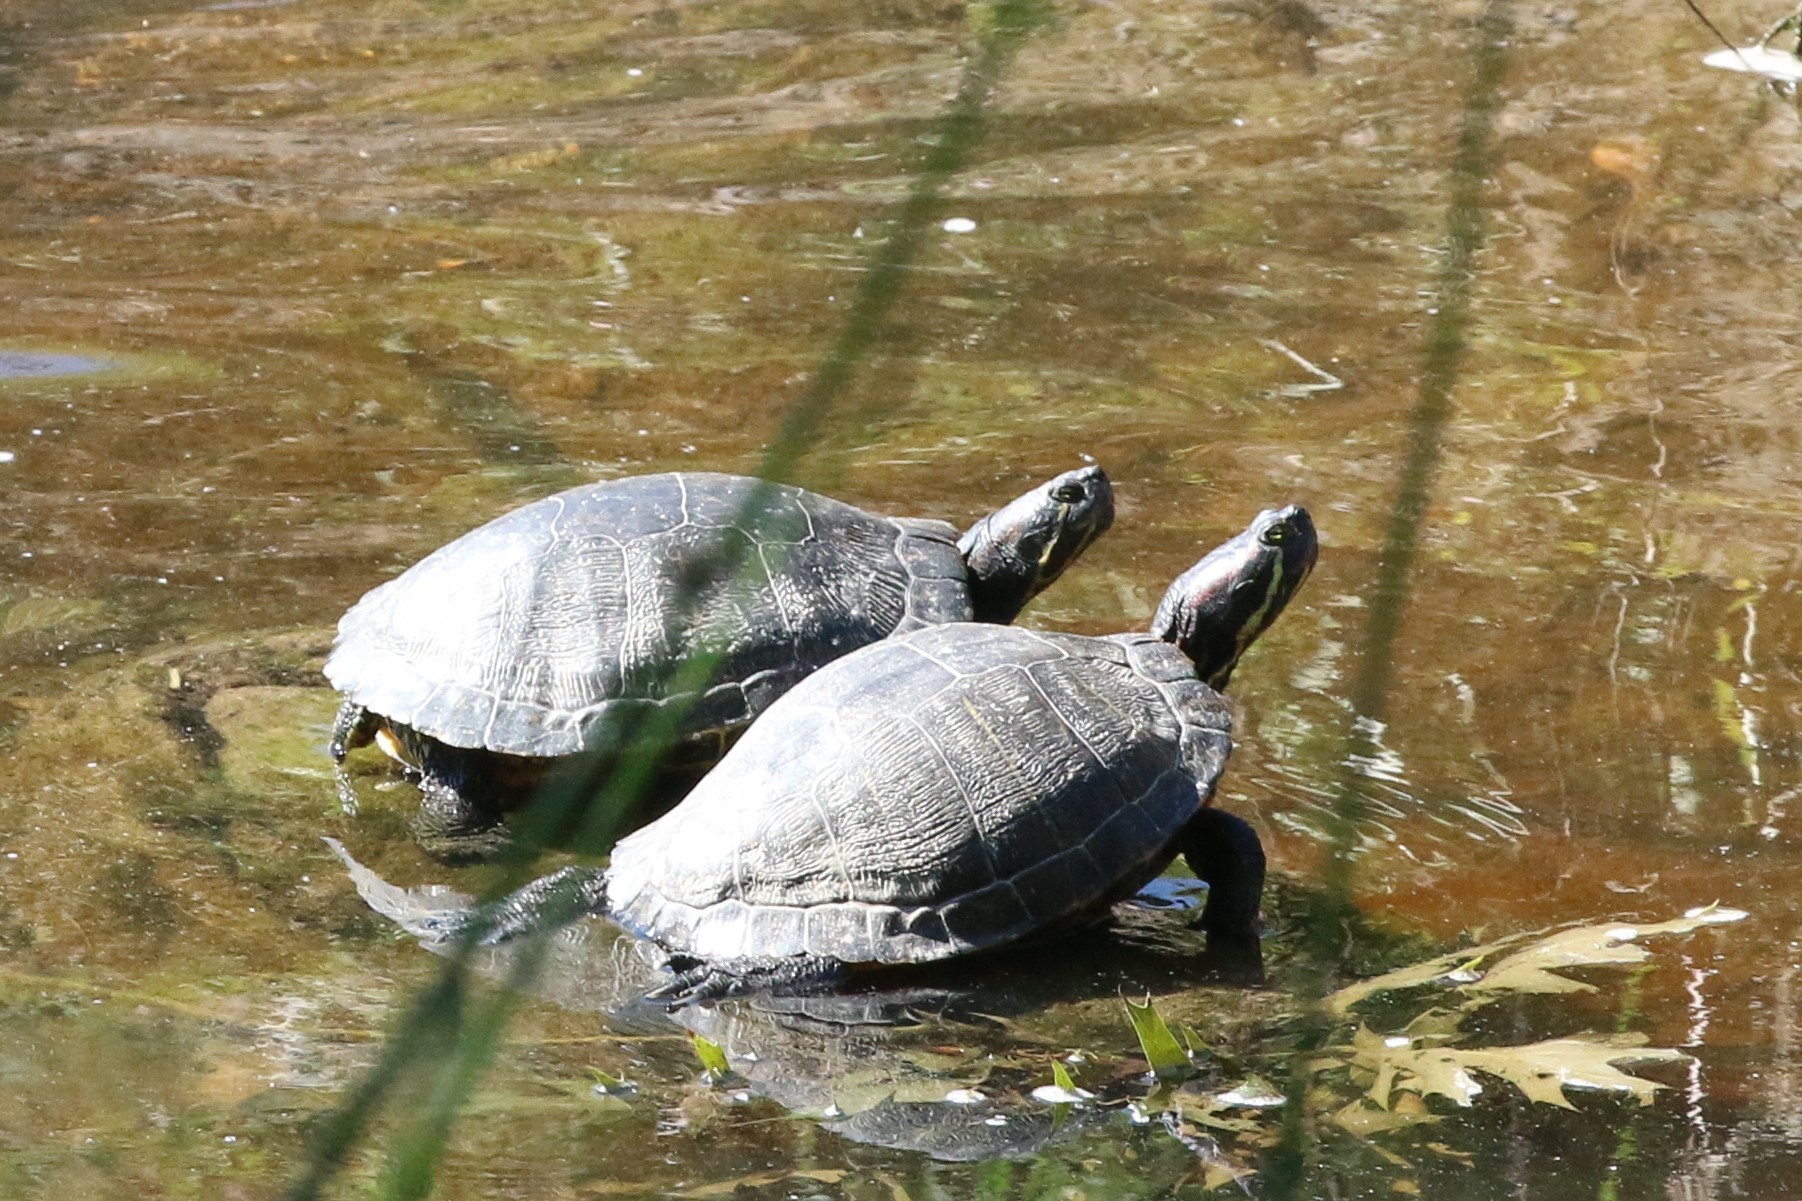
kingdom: Animalia
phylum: Chordata
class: Testudines
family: Emydidae
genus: Trachemys
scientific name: Trachemys scripta
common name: Slider
